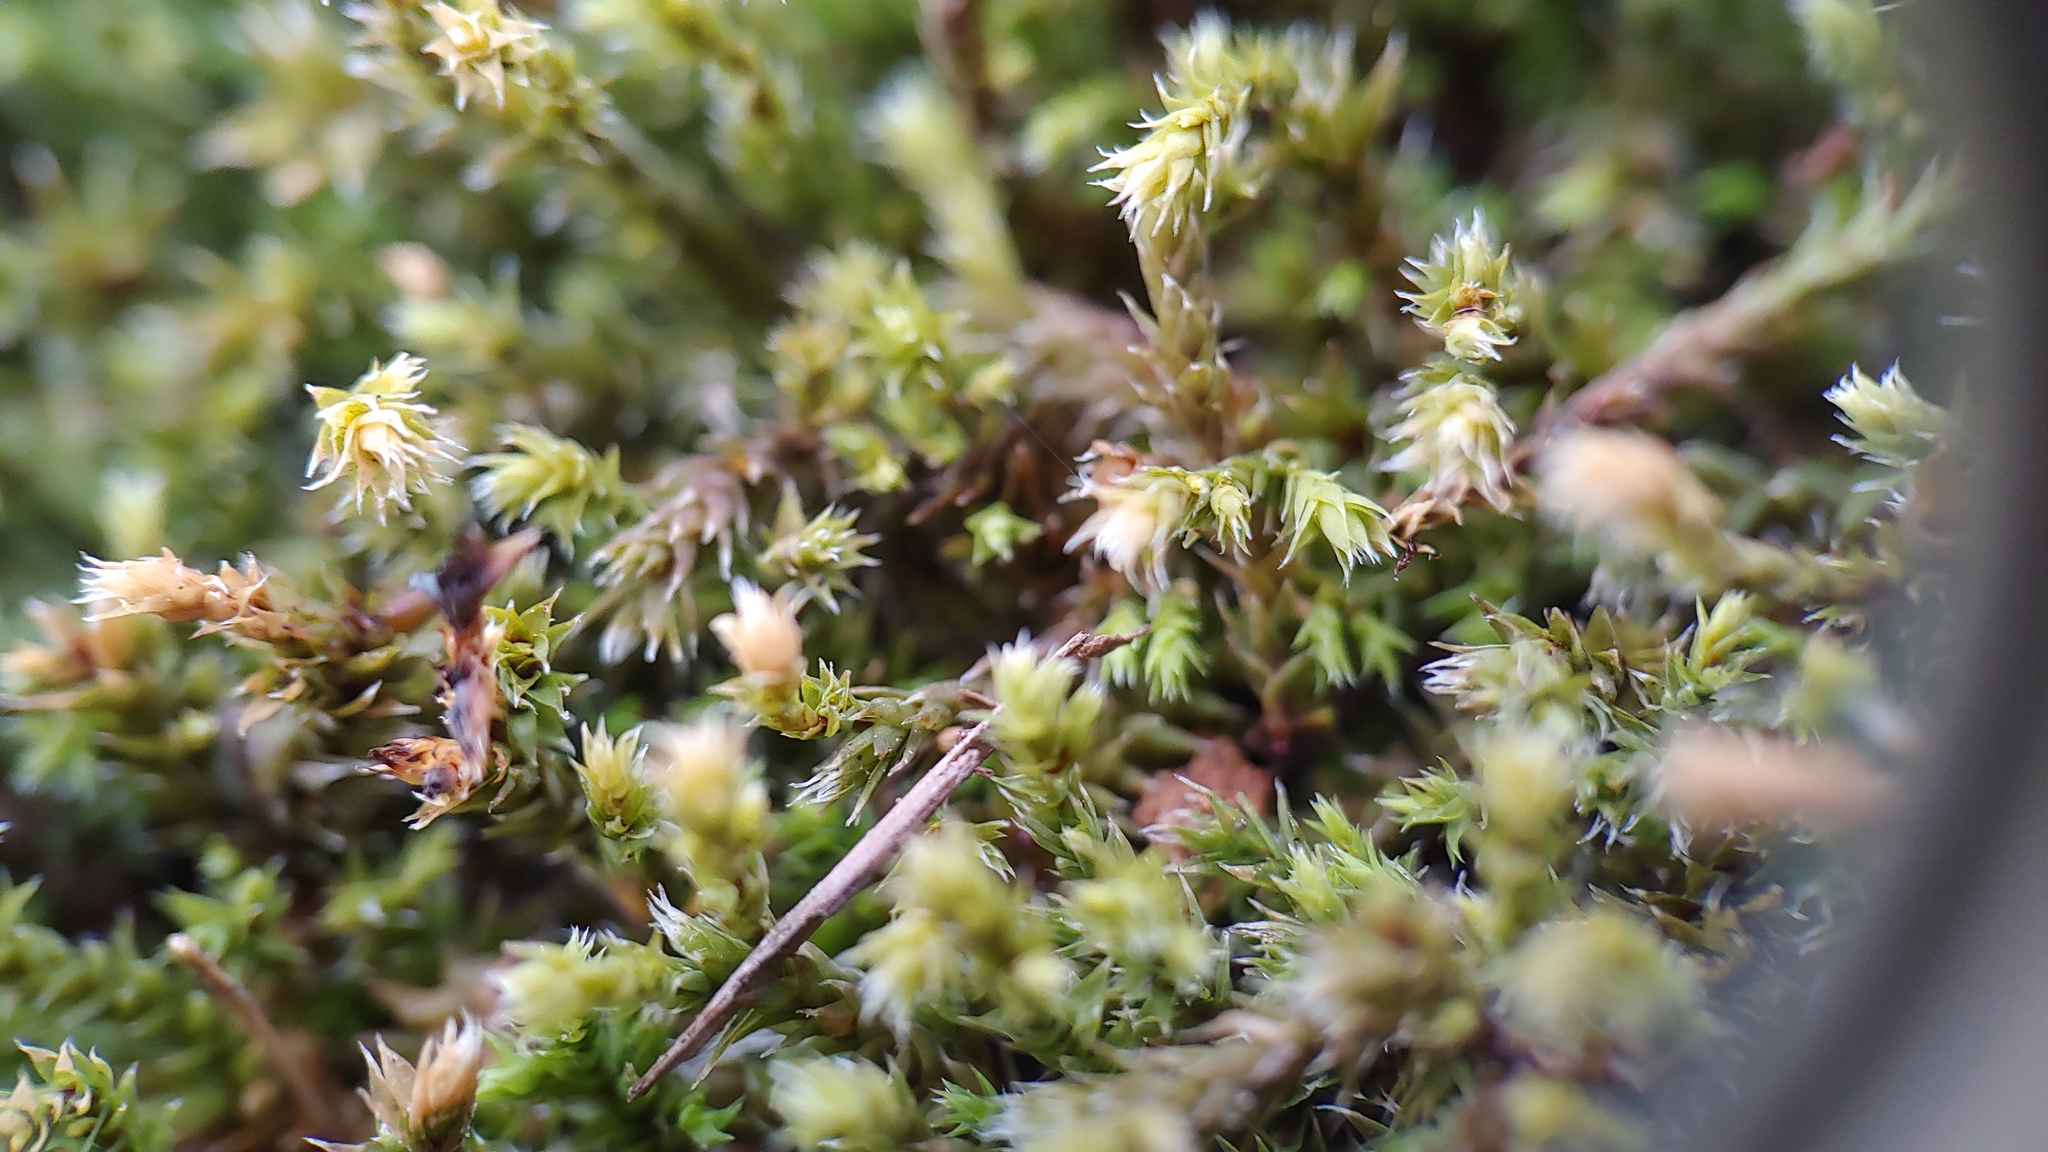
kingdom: Plantae
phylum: Bryophyta
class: Bryopsida
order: Hedwigiales
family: Hedwigiaceae
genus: Hedwigia
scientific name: Hedwigia ciliata
